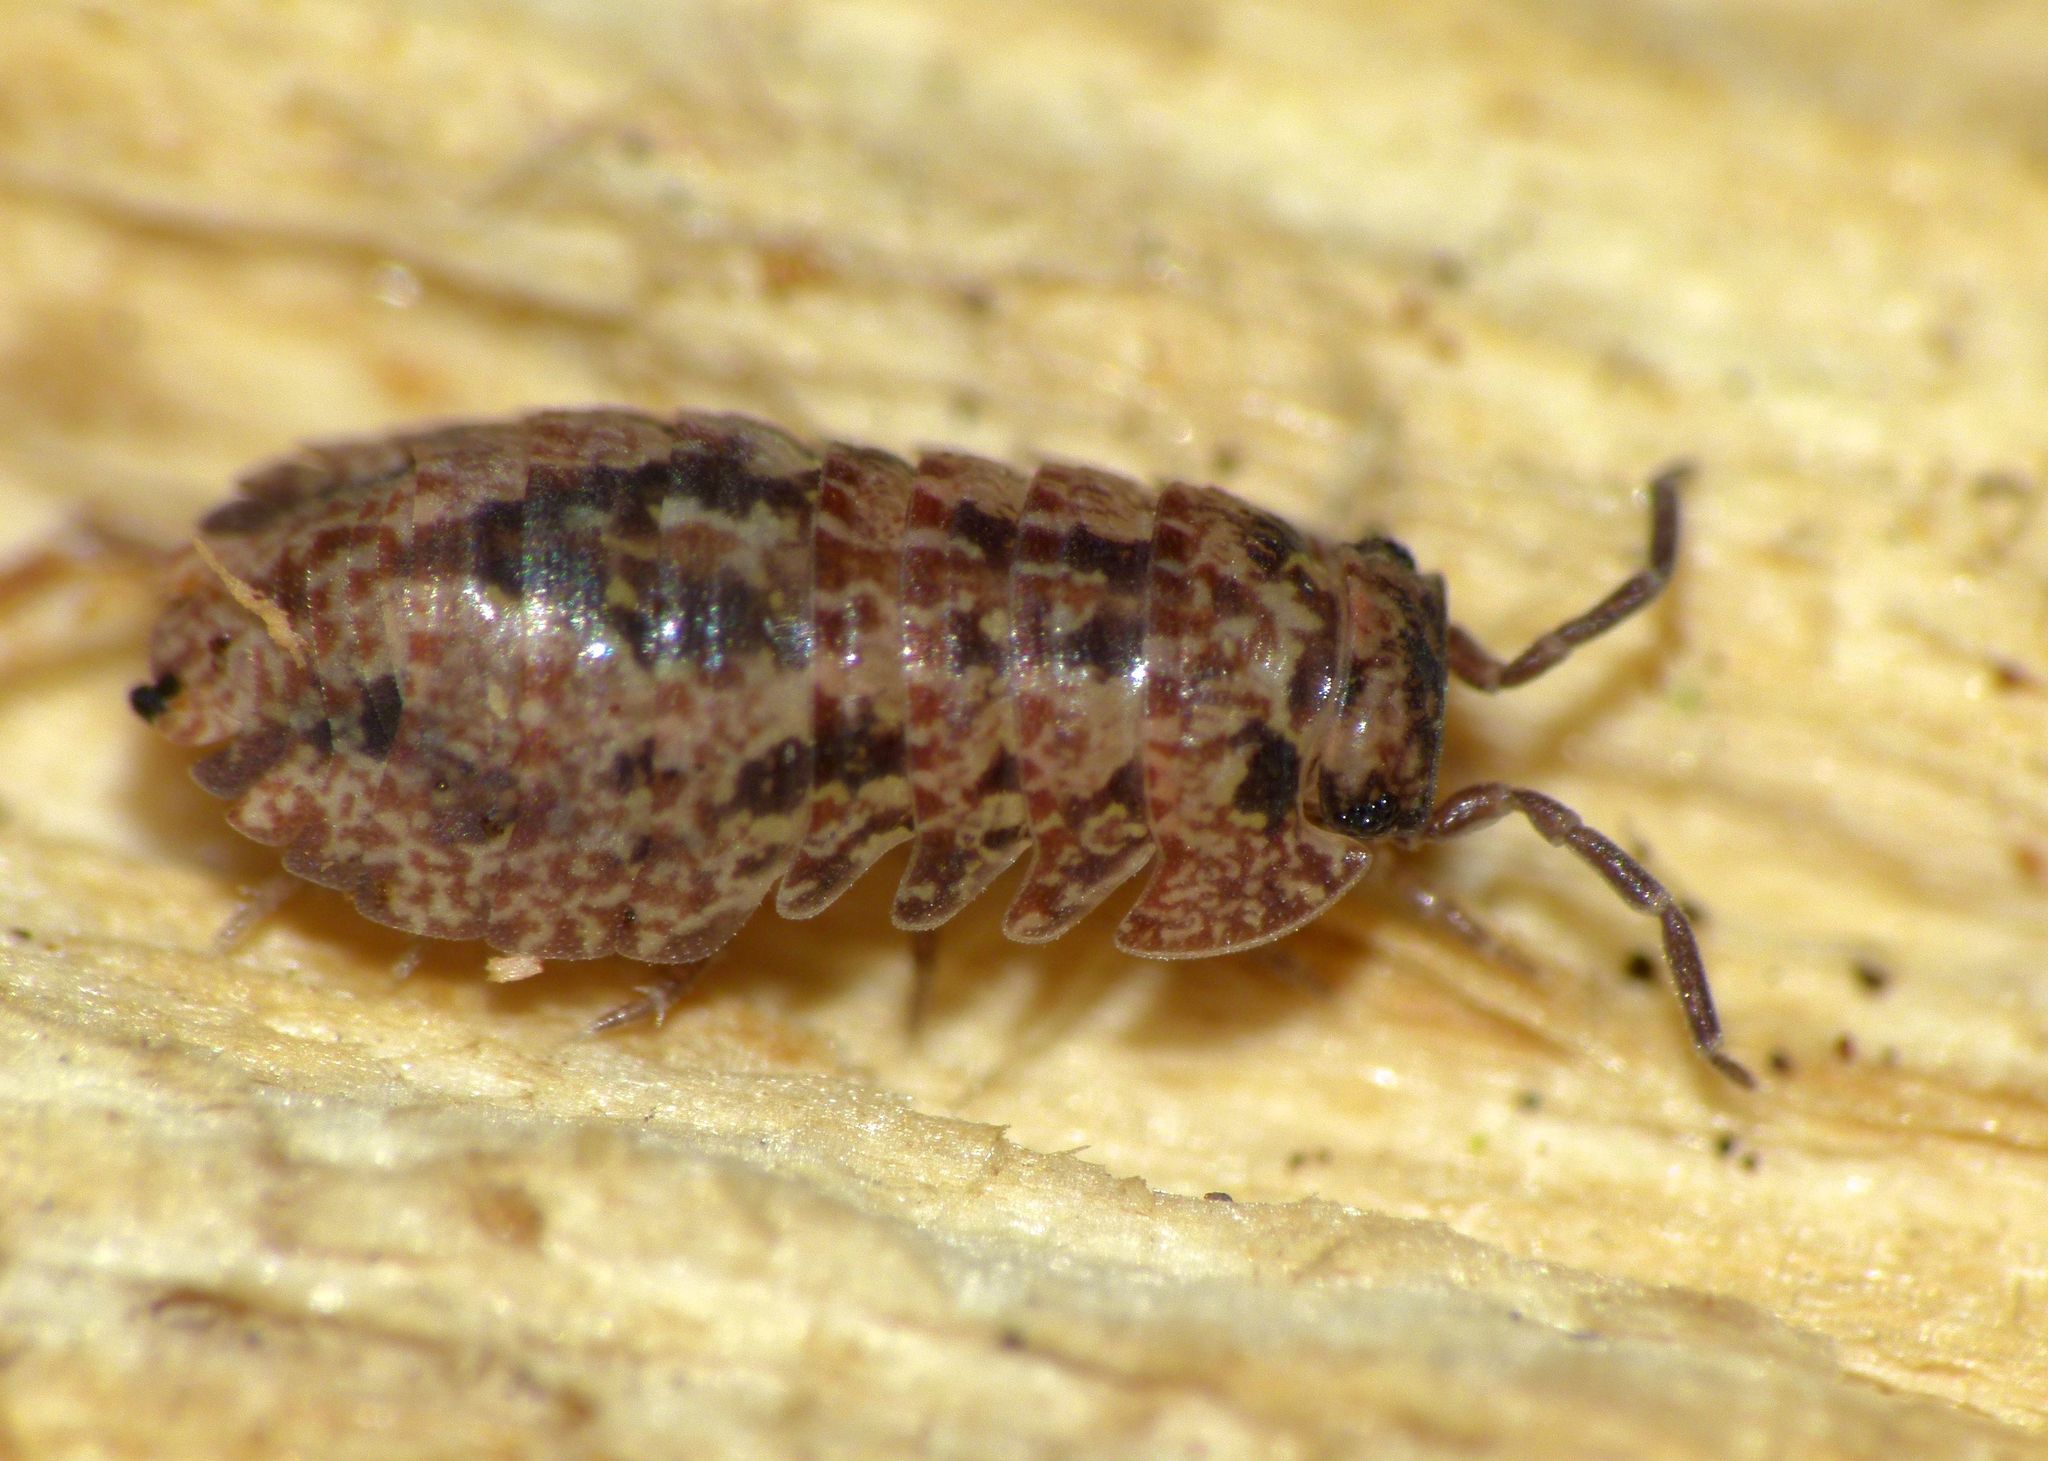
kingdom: Animalia
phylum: Arthropoda
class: Malacostraca
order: Isopoda
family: Armadillidae
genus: Cubaris
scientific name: Cubaris tarangensis
